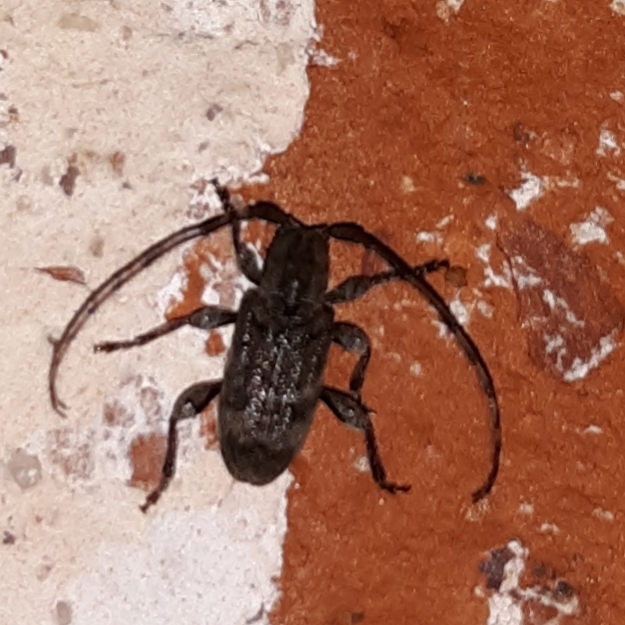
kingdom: Animalia
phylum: Arthropoda
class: Insecta
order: Coleoptera
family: Cerambycidae
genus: Ecyrus
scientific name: Ecyrus dasycerus
